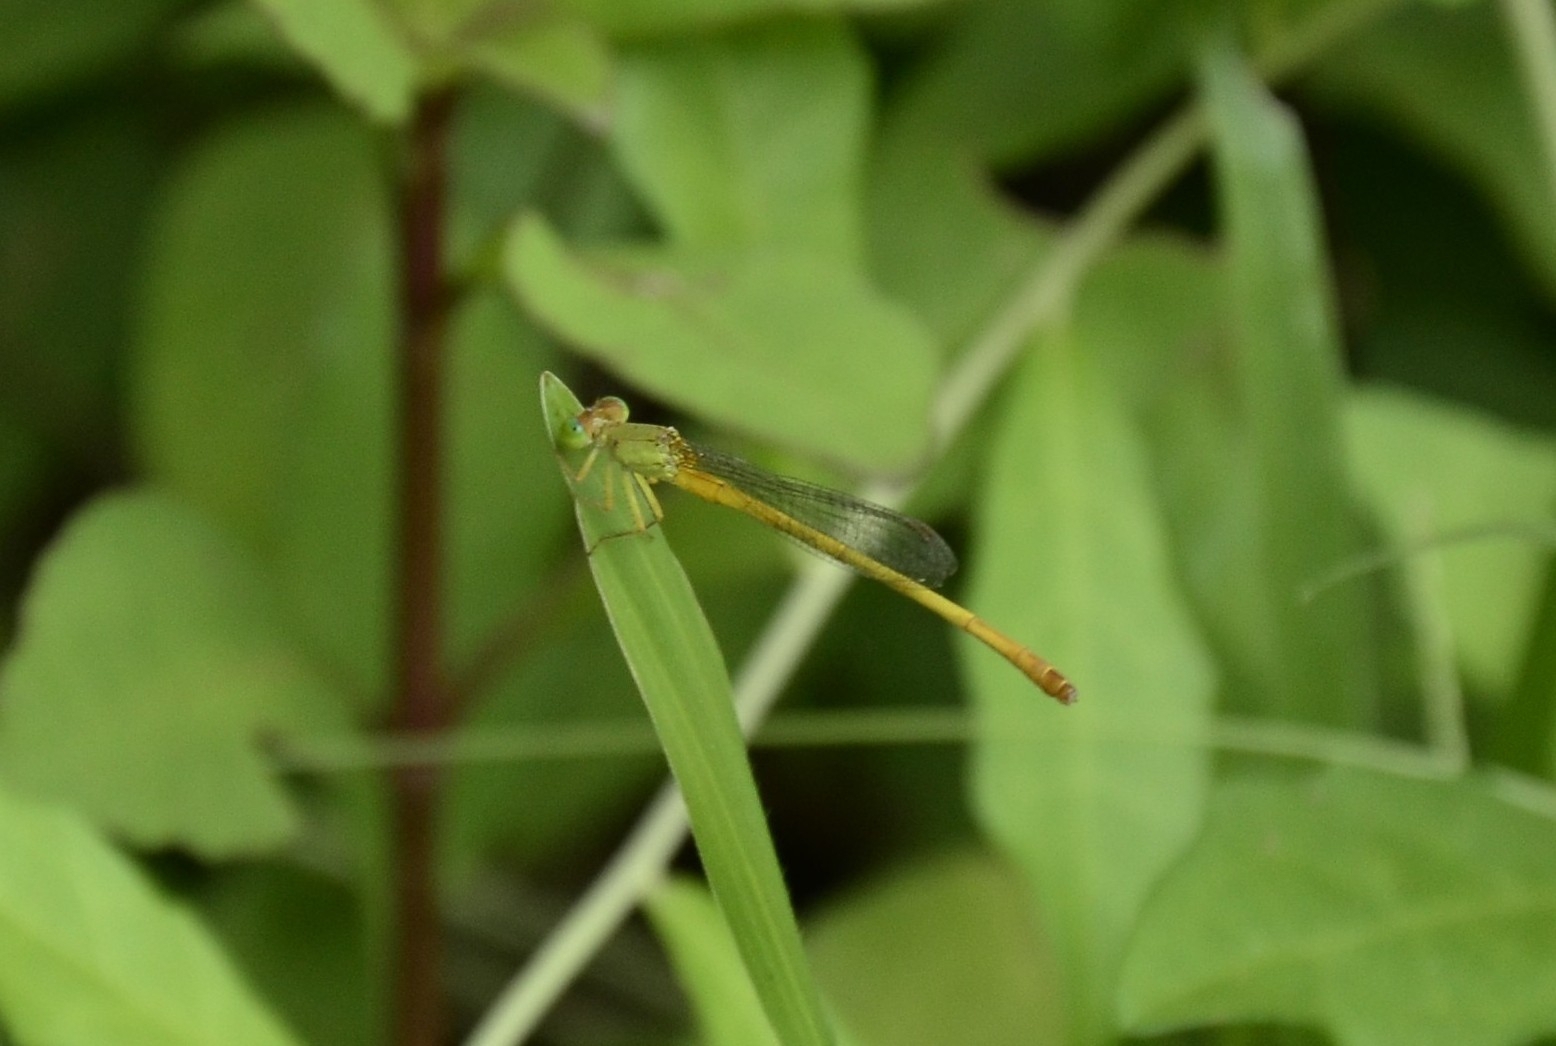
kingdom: Animalia
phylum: Arthropoda
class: Insecta
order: Odonata
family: Coenagrionidae
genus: Ceriagrion
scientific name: Ceriagrion coromandelianum
